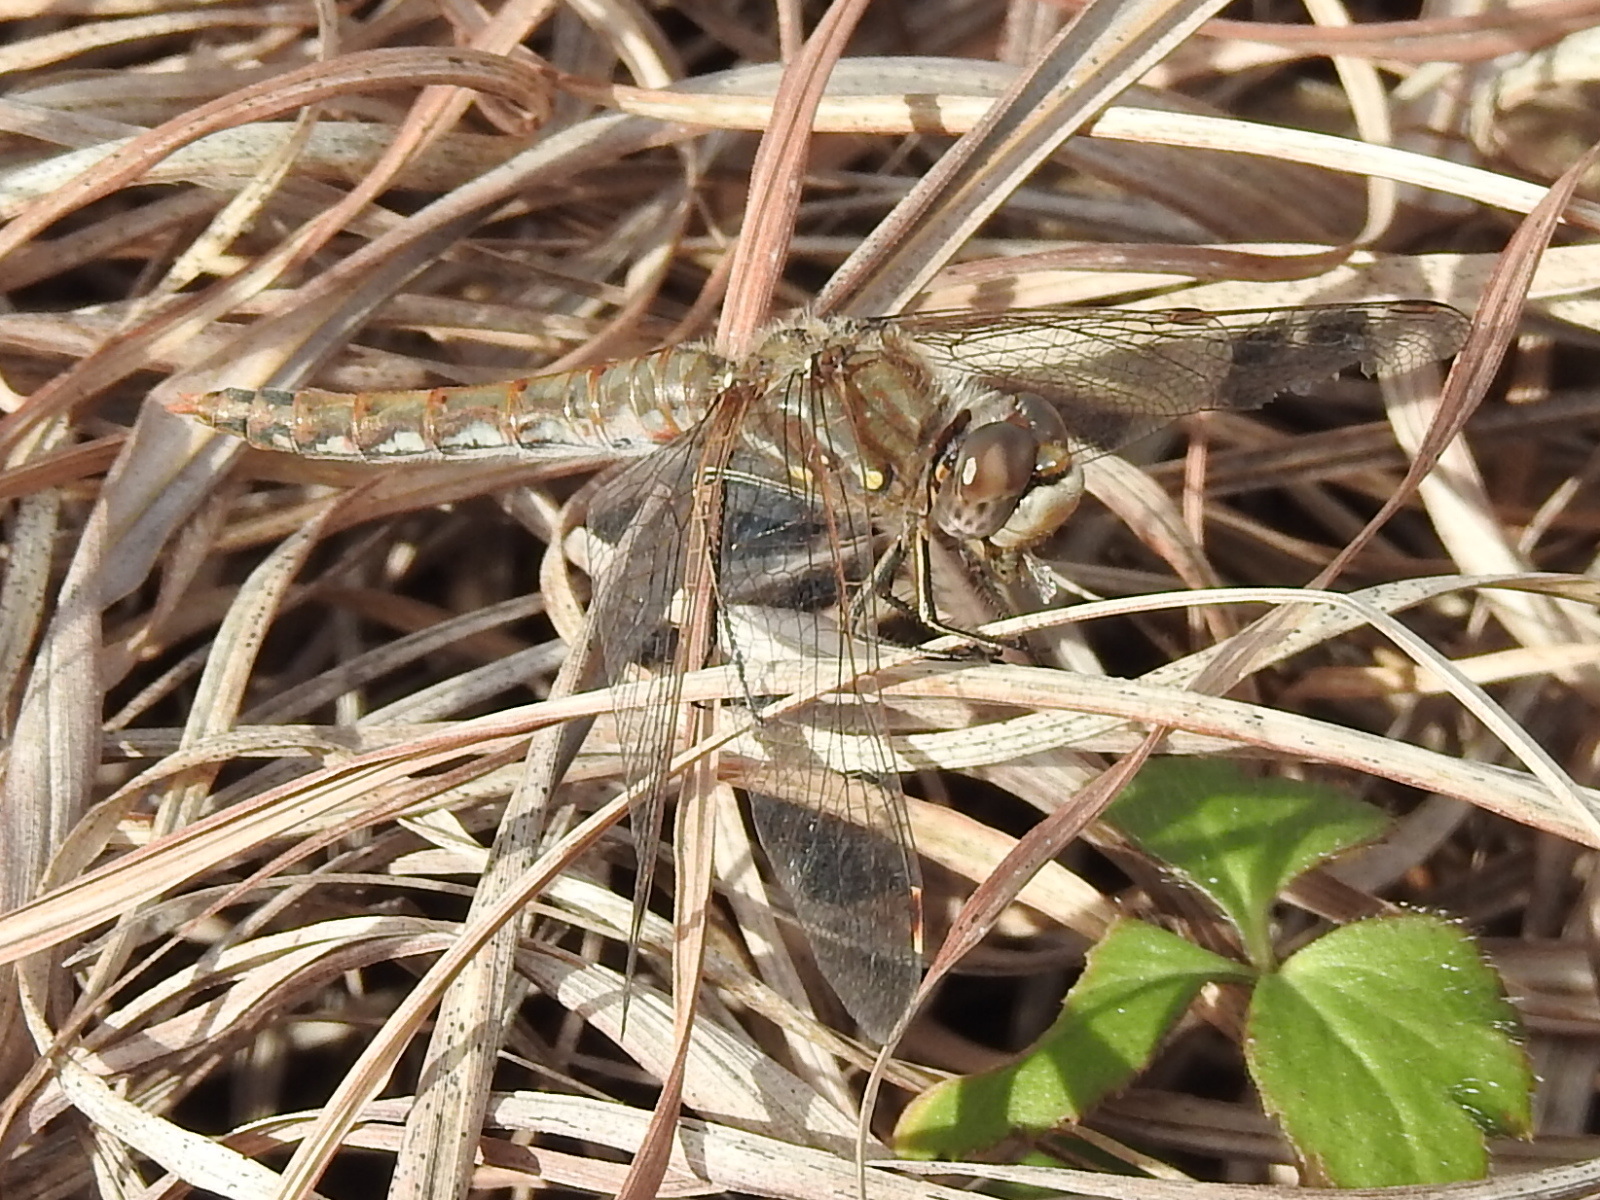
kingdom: Animalia
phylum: Arthropoda
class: Insecta
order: Odonata
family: Libellulidae
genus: Sympetrum
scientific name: Sympetrum corruptum
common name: Variegated meadowhawk
